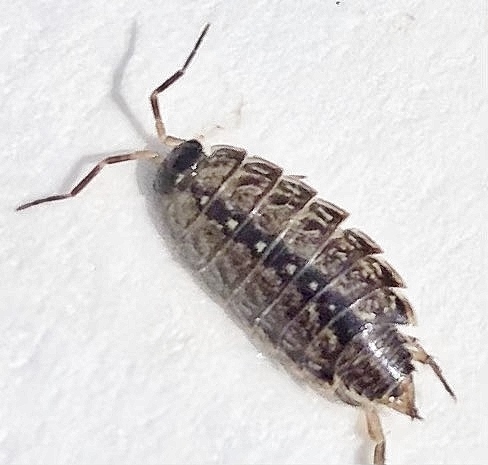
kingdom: Animalia
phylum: Arthropoda
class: Malacostraca
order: Isopoda
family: Philosciidae
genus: Philoscia
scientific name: Philoscia muscorum
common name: Common striped woodlouse
